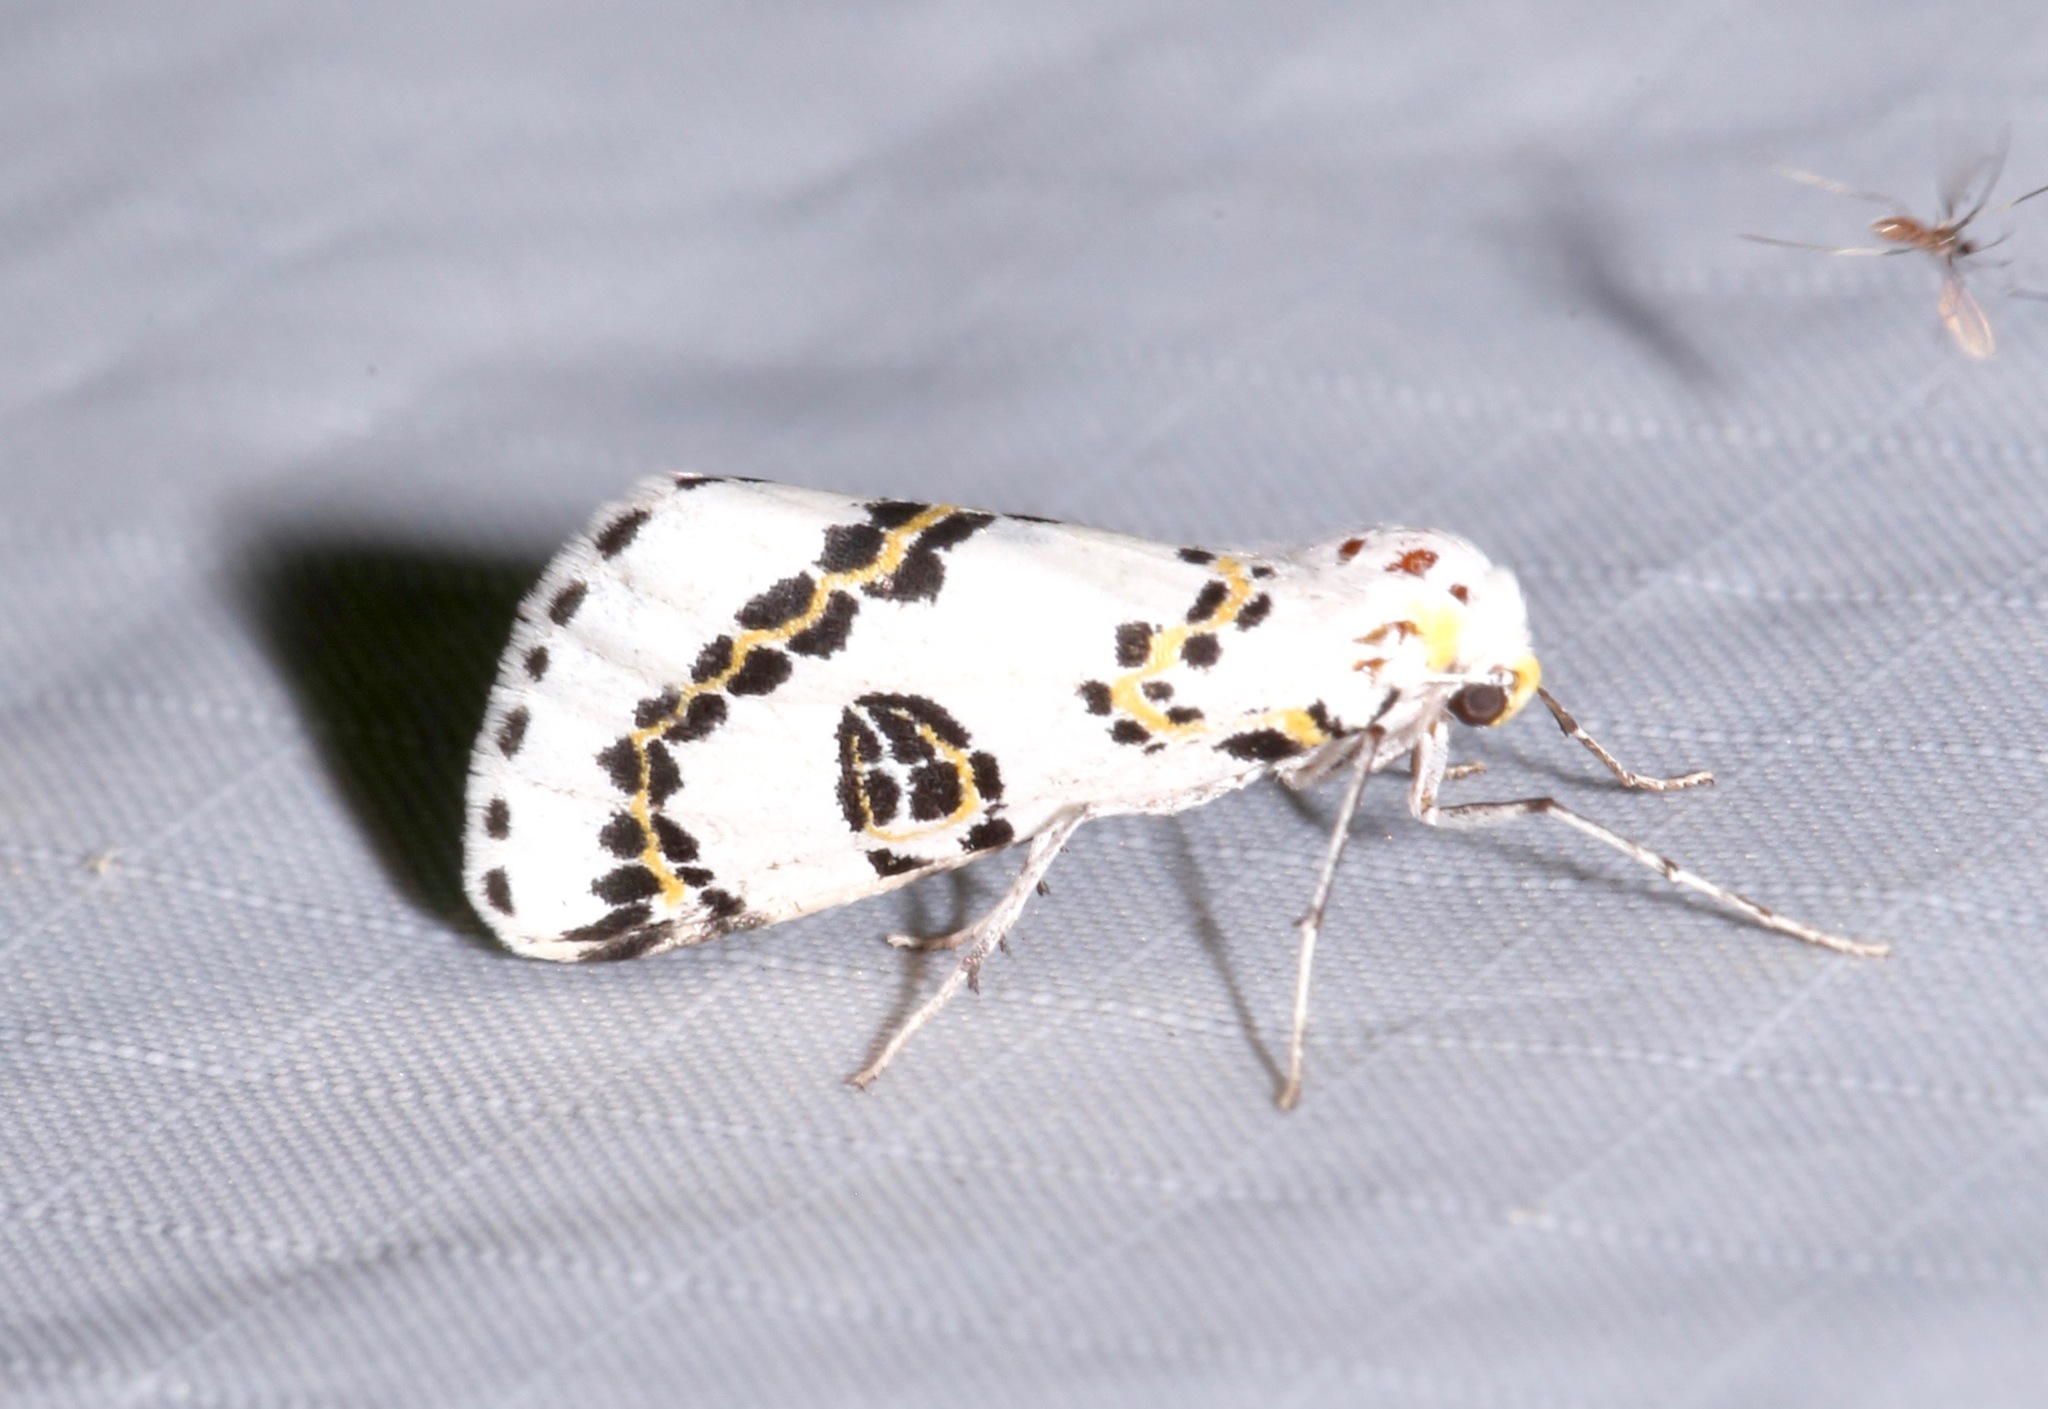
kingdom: Animalia
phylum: Arthropoda
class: Insecta
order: Lepidoptera
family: Geometridae
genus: Philtraea
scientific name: Philtraea elegantaria
